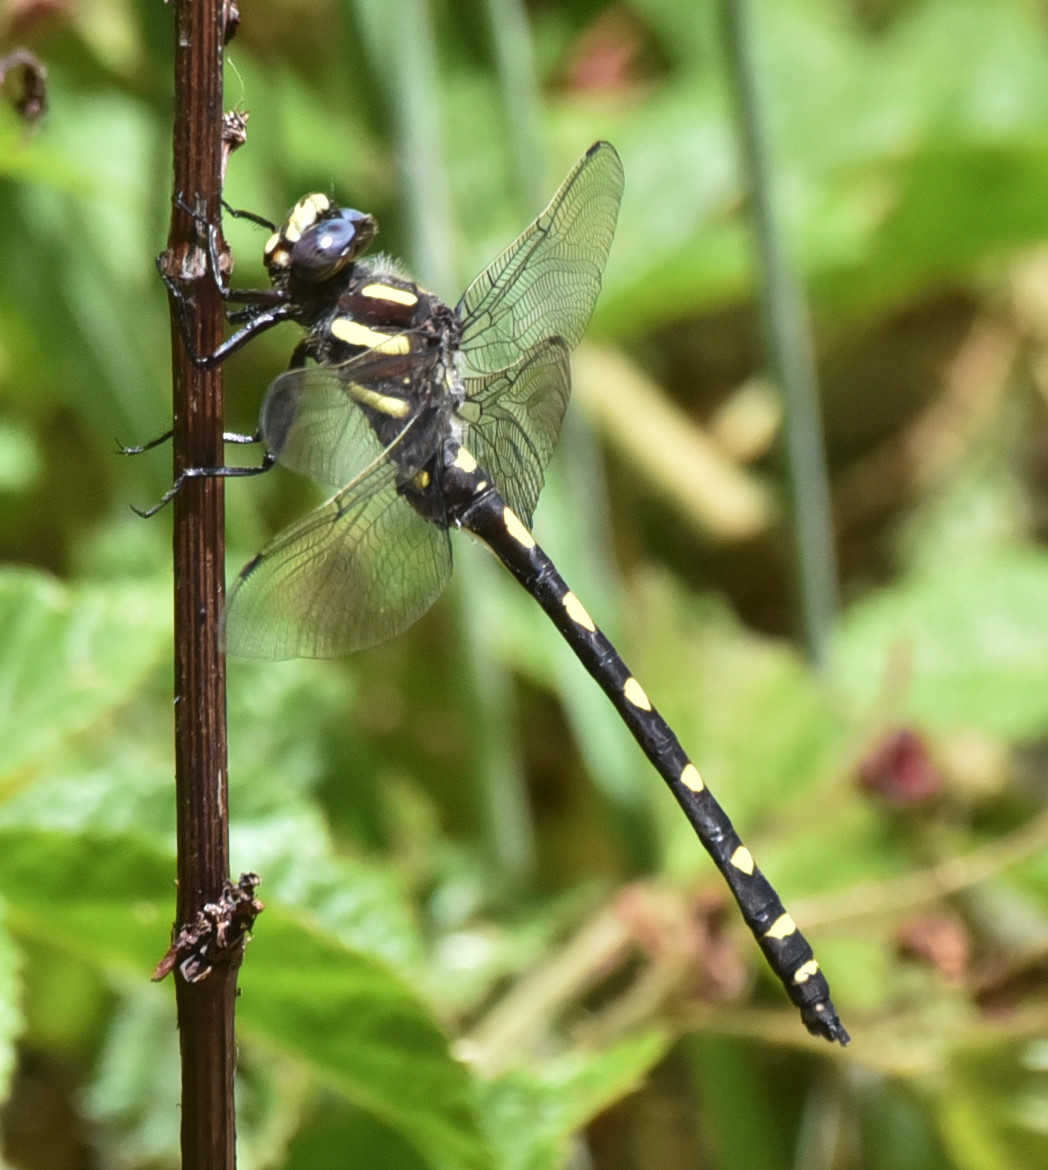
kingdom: Animalia
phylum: Arthropoda
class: Insecta
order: Odonata
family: Cordulegastridae
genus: Cordulegaster
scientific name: Cordulegaster dorsalis
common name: Pacific spiketail
